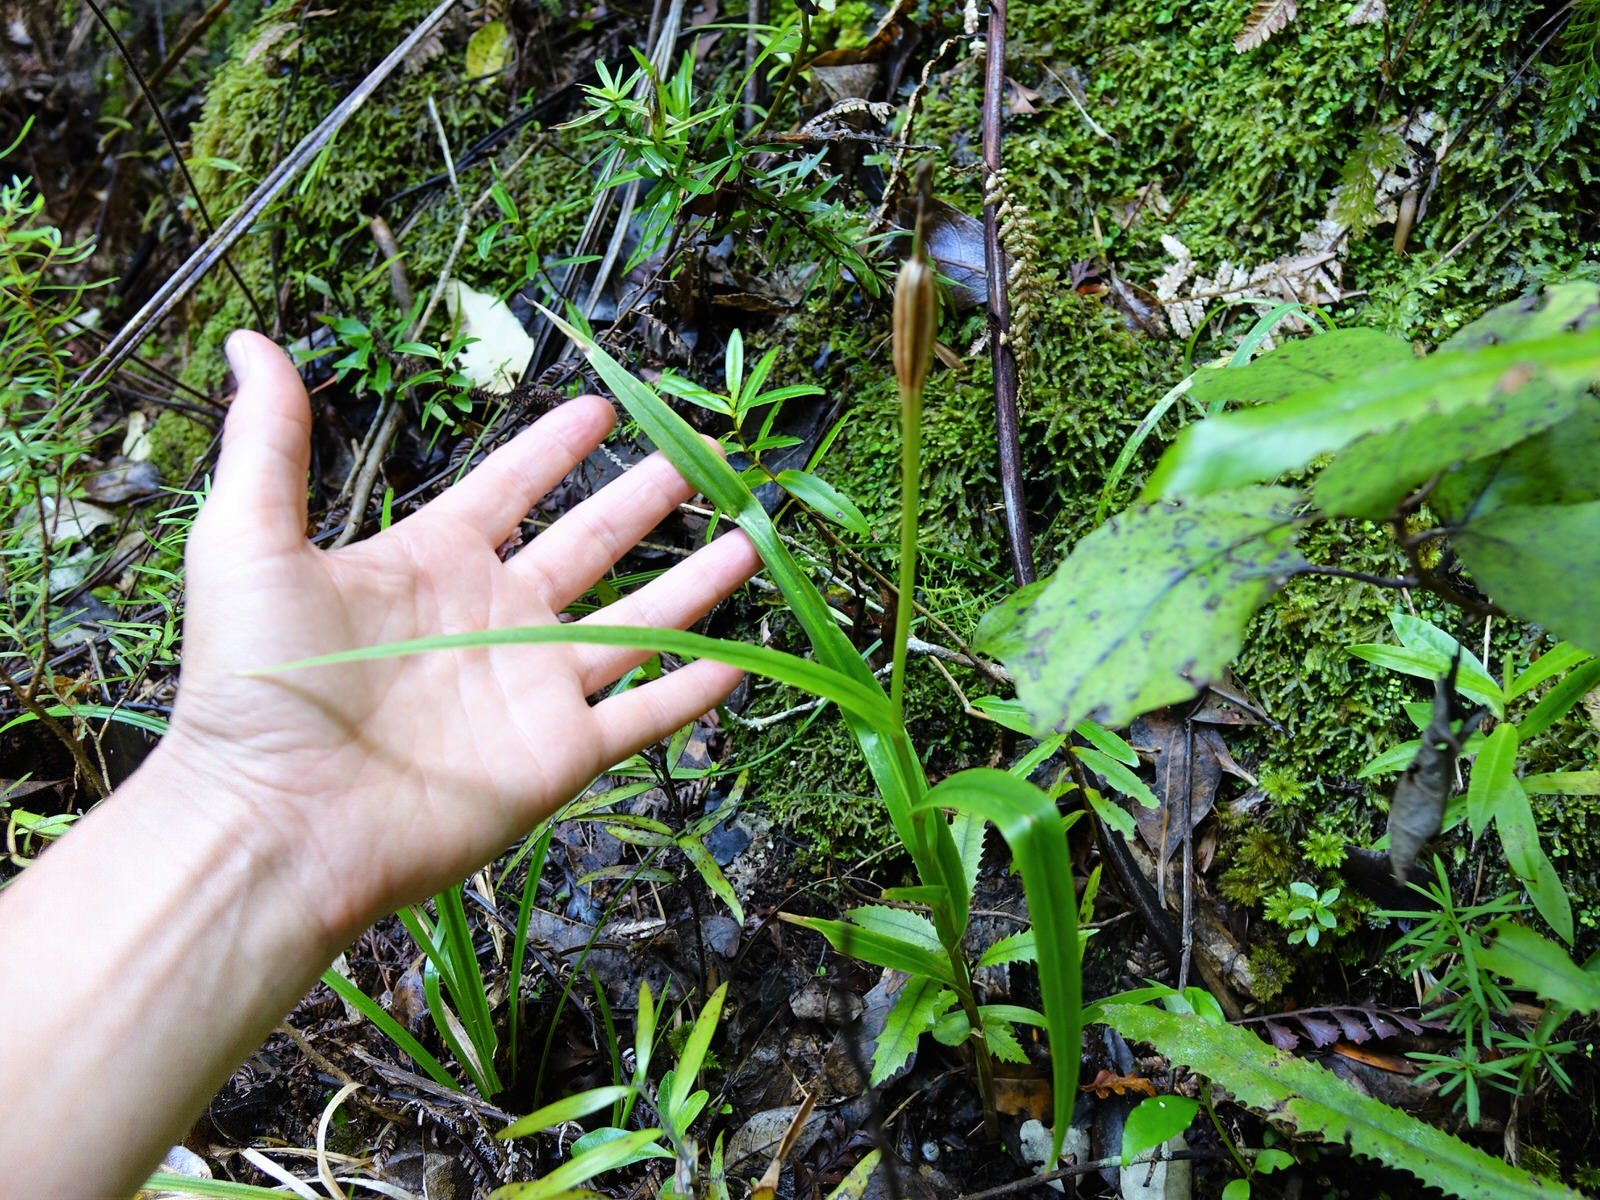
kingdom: Plantae
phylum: Tracheophyta
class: Liliopsida
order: Asparagales
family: Orchidaceae
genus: Pterostylis
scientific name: Pterostylis banksii
